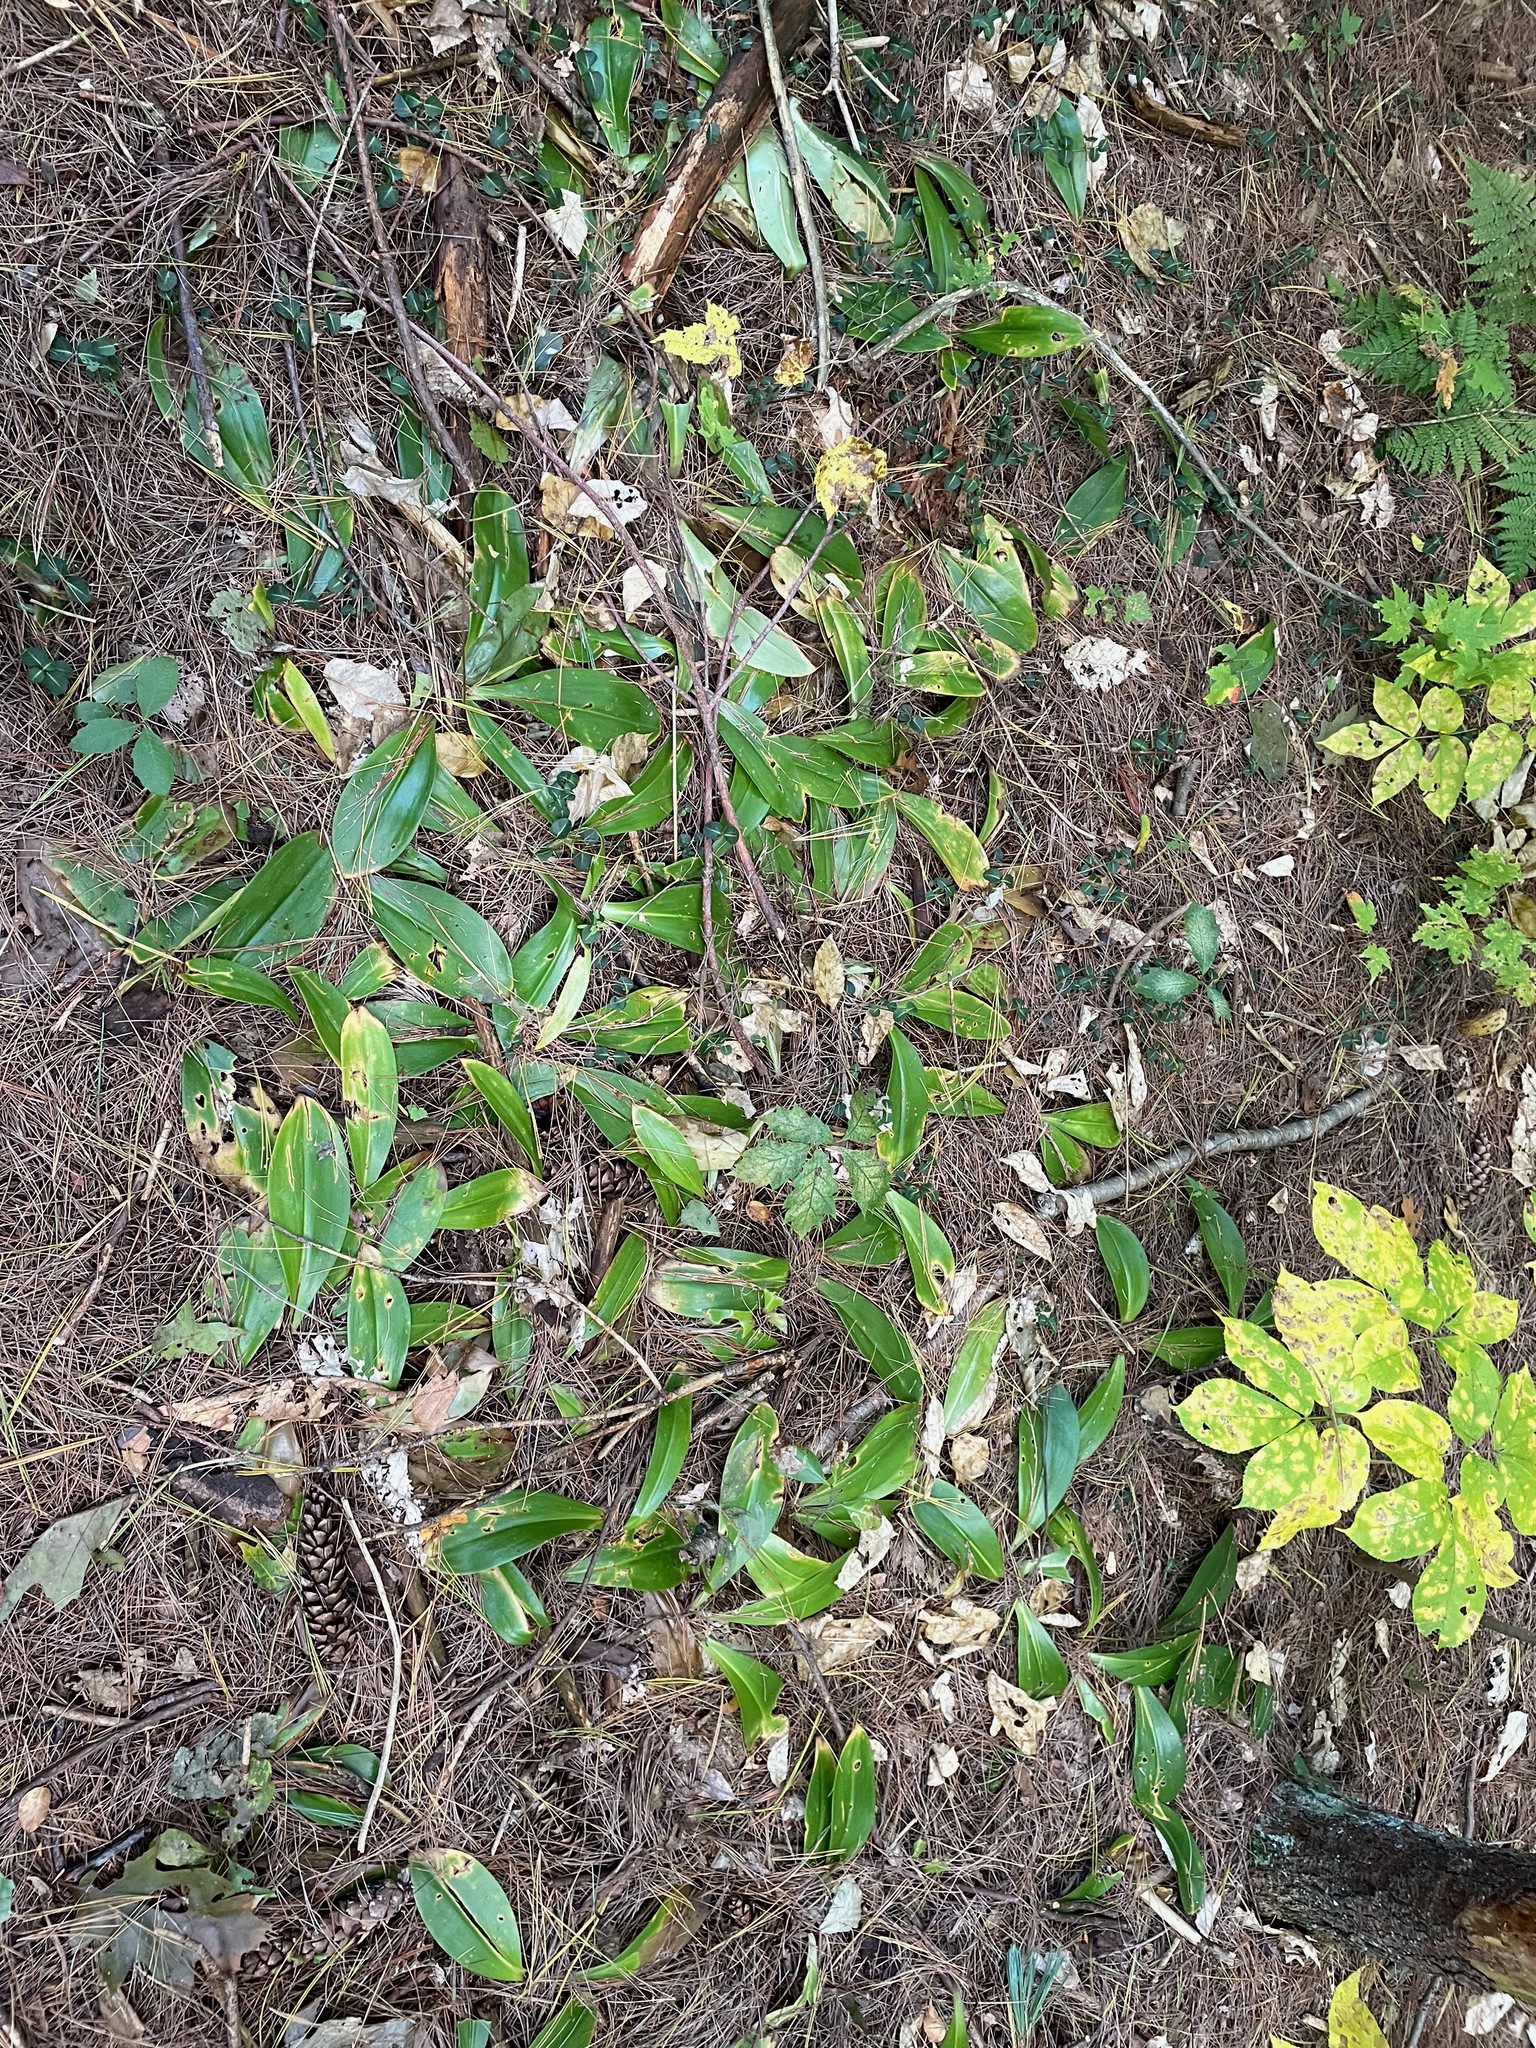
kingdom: Plantae
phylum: Tracheophyta
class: Liliopsida
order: Liliales
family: Liliaceae
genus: Clintonia
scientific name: Clintonia borealis
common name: Yellow clintonia
